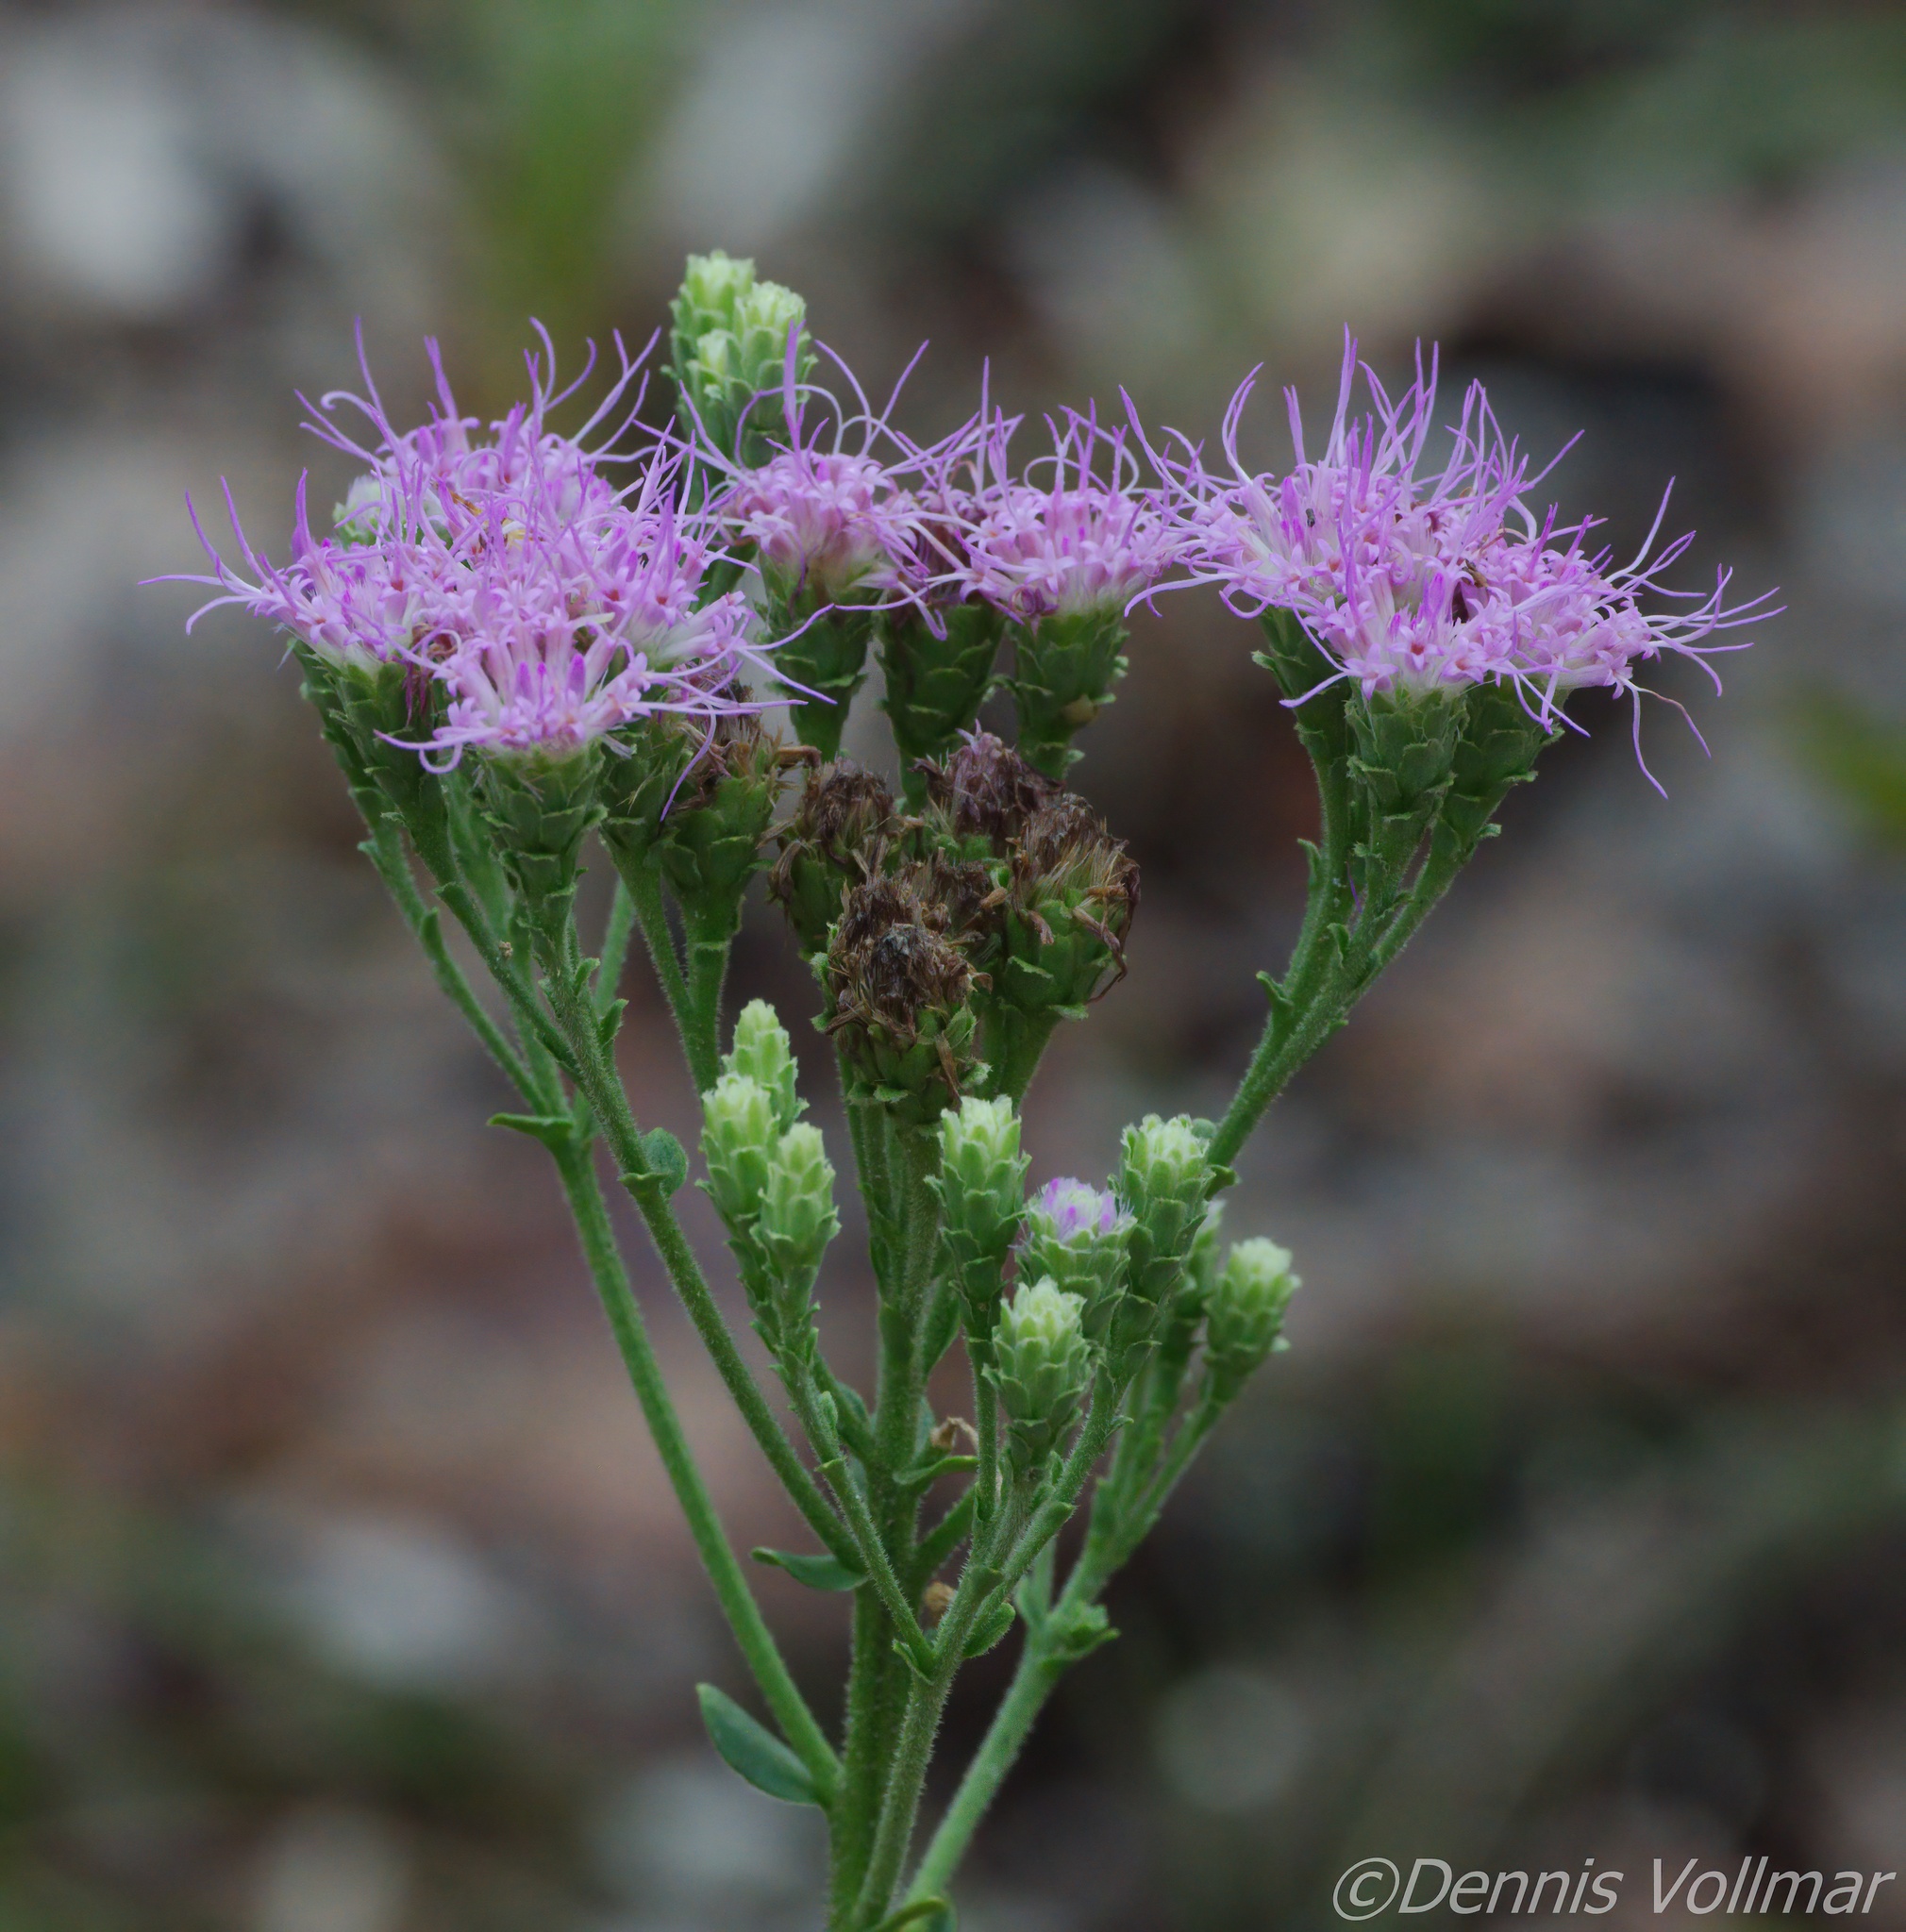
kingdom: Plantae
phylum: Tracheophyta
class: Magnoliopsida
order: Asterales
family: Asteraceae
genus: Carphephorus
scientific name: Carphephorus corymbosus
